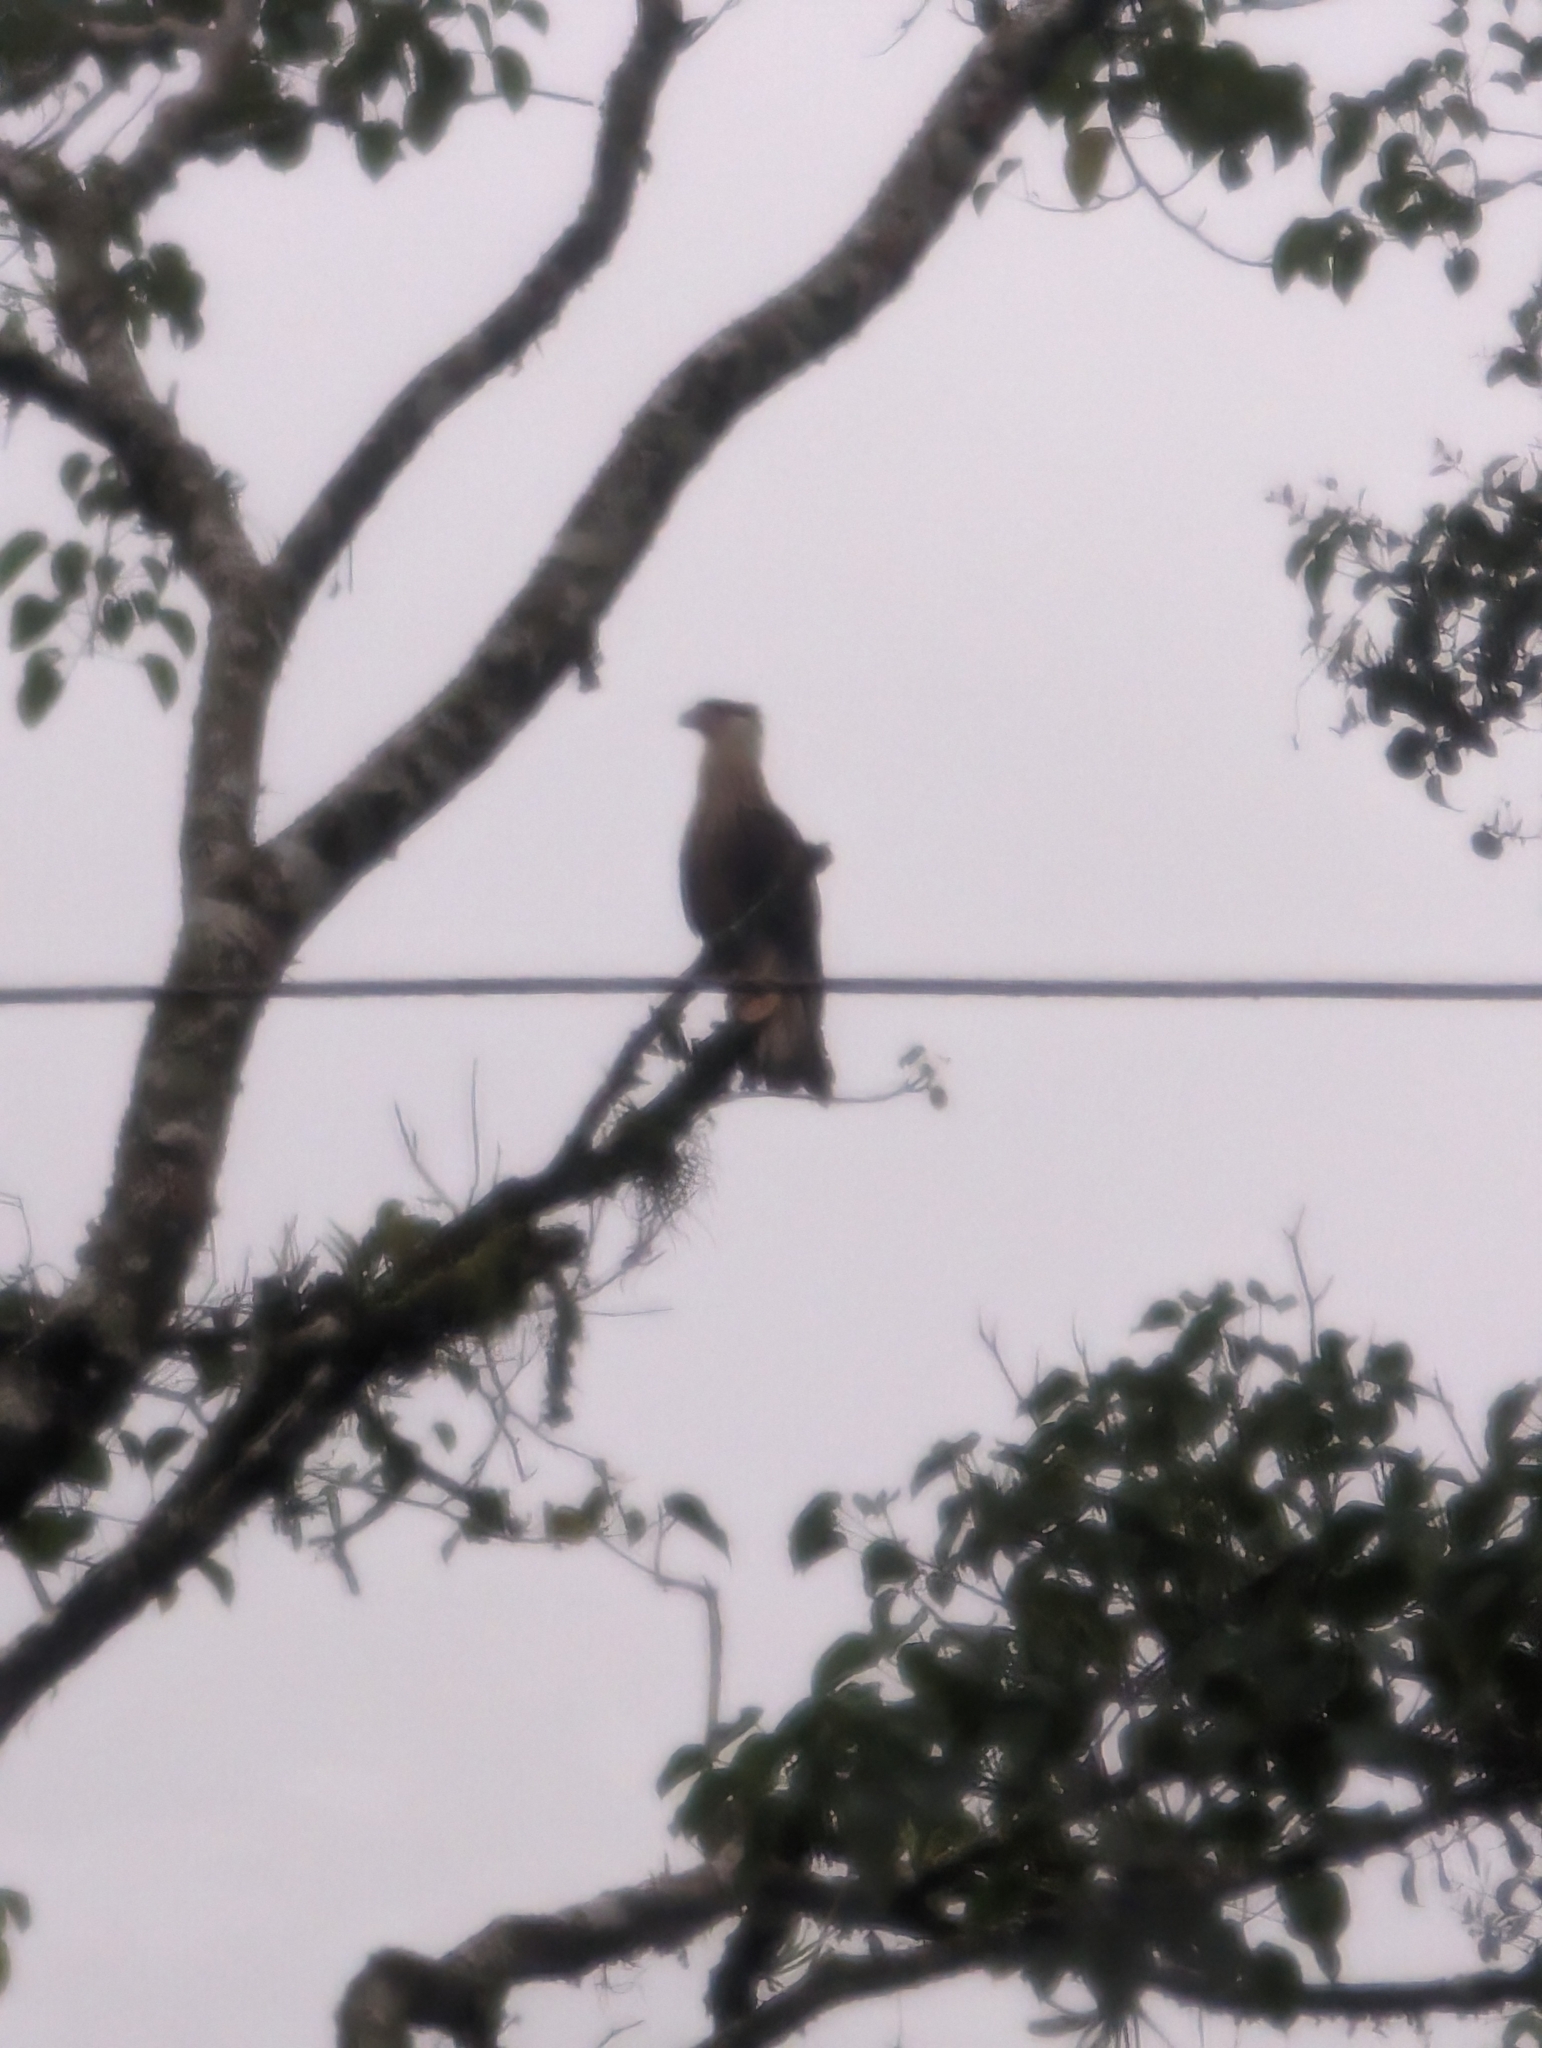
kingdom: Animalia
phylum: Chordata
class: Aves
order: Falconiformes
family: Falconidae
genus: Caracara
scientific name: Caracara plancus
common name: Southern caracara
